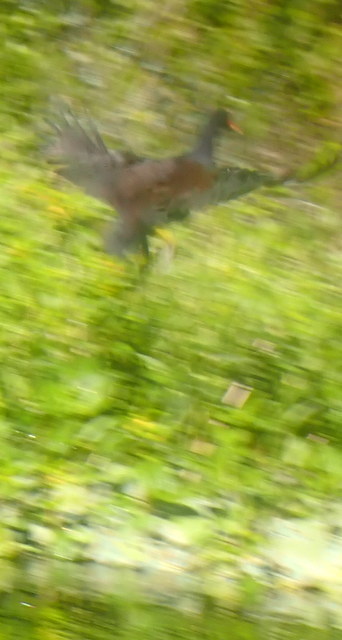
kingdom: Animalia
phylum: Chordata
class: Aves
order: Gruiformes
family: Rallidae
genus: Gallinula
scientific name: Gallinula chloropus
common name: Common moorhen
